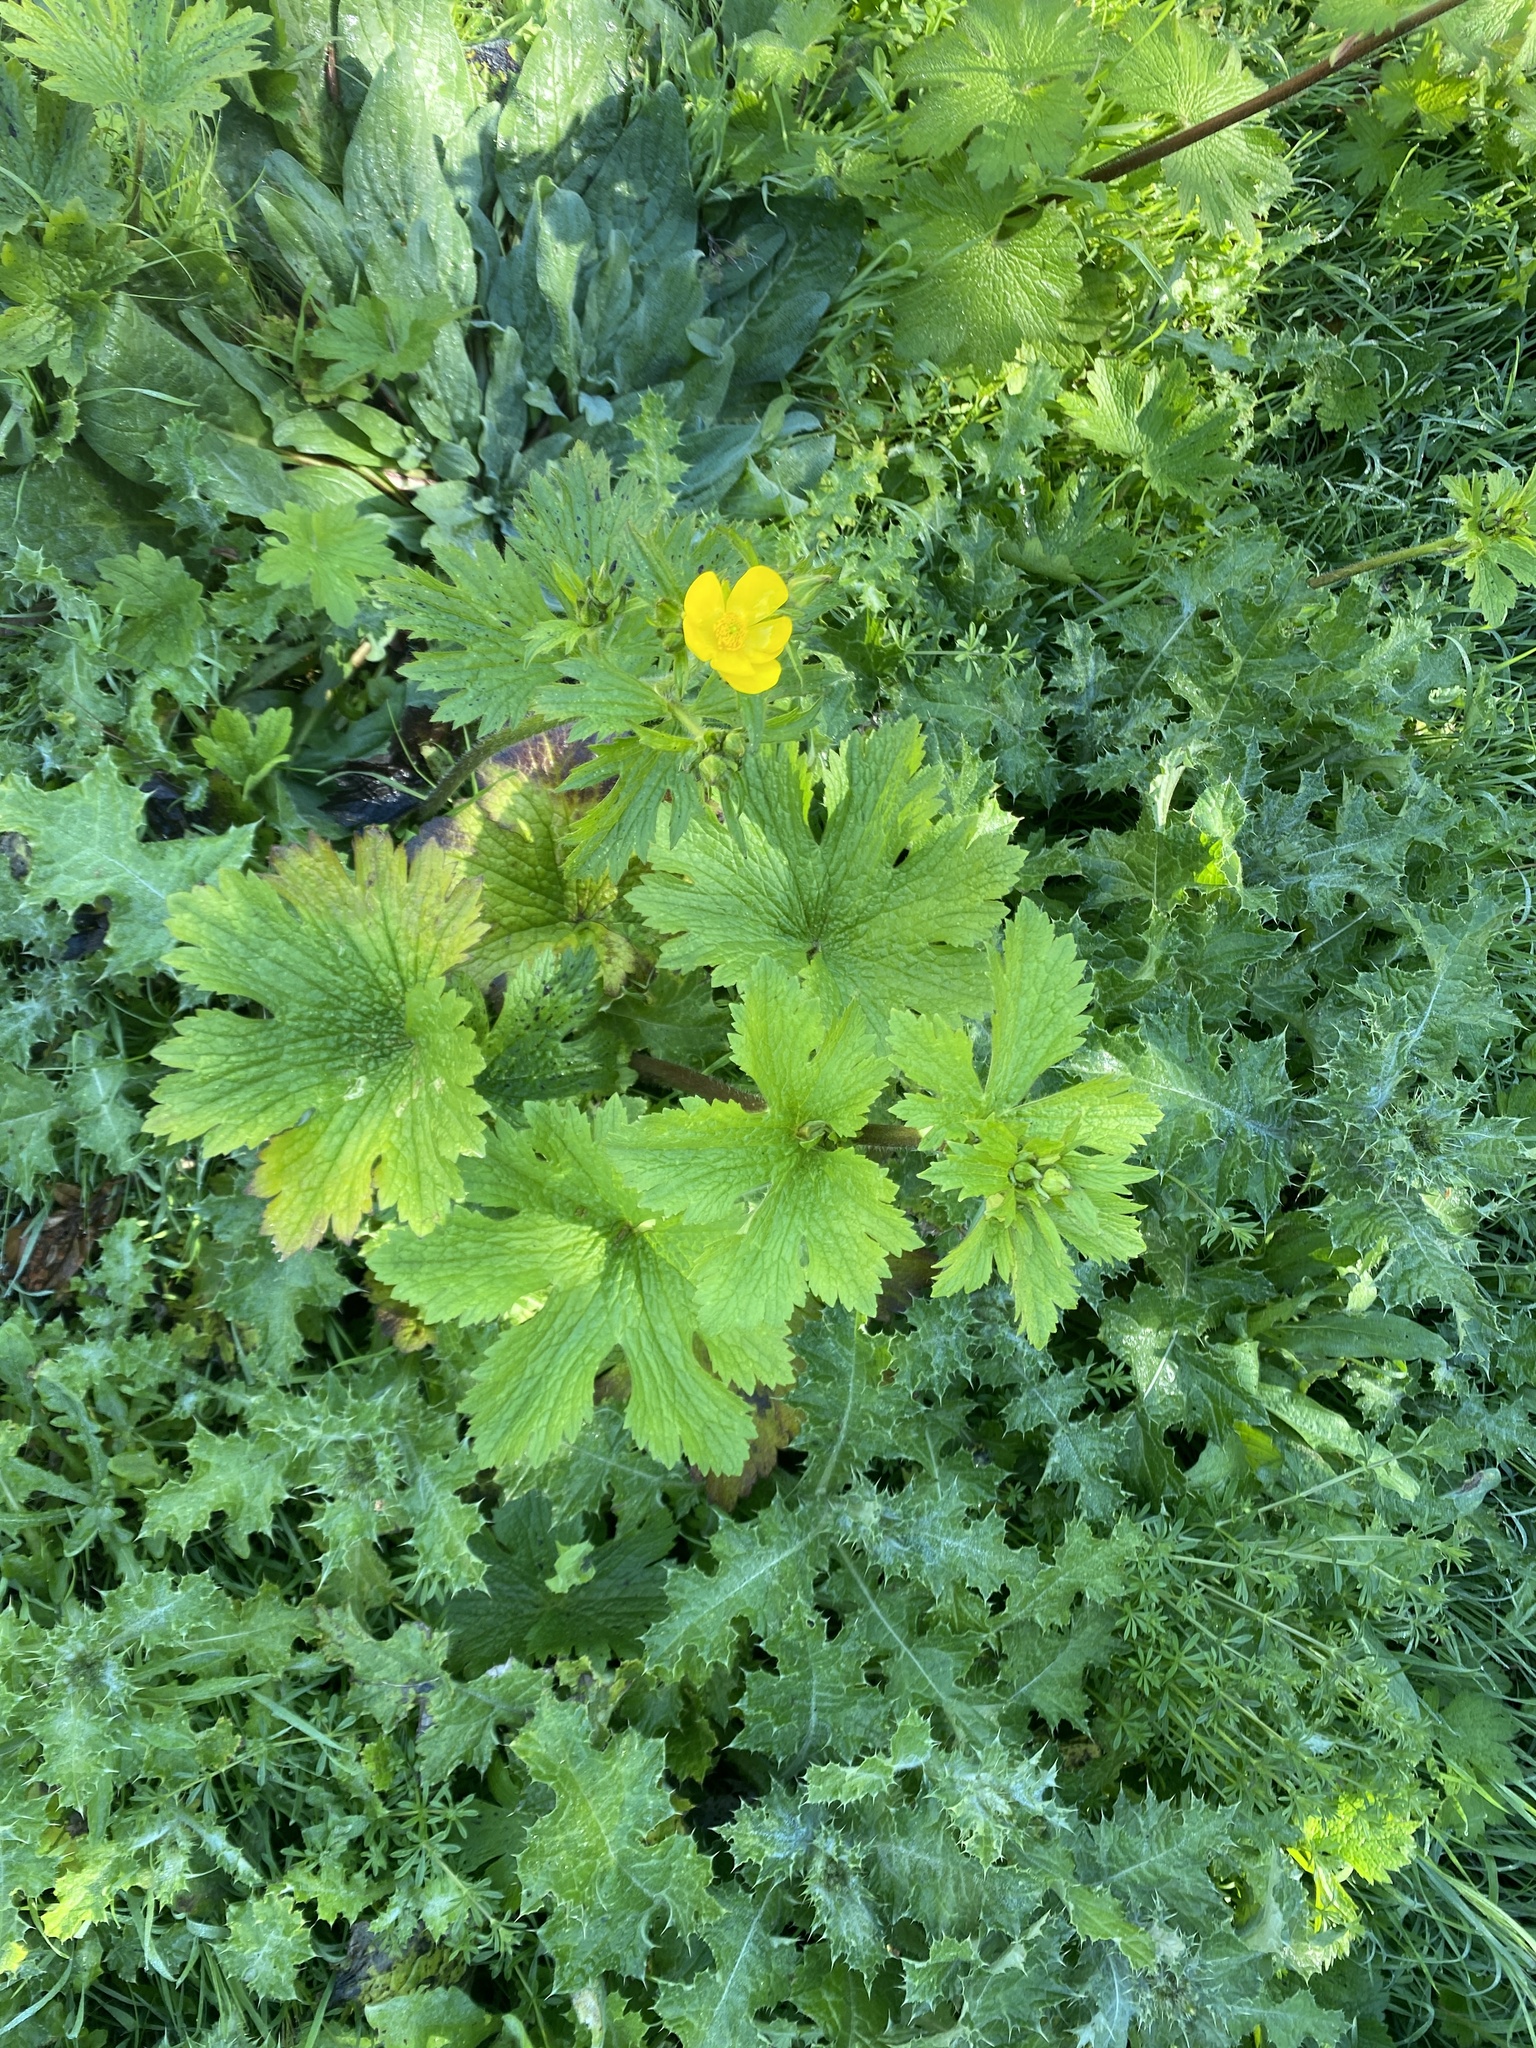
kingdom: Plantae
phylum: Tracheophyta
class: Magnoliopsida
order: Ranunculales
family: Ranunculaceae
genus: Ranunculus
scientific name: Ranunculus cortusifolius
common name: Azores buttercup
